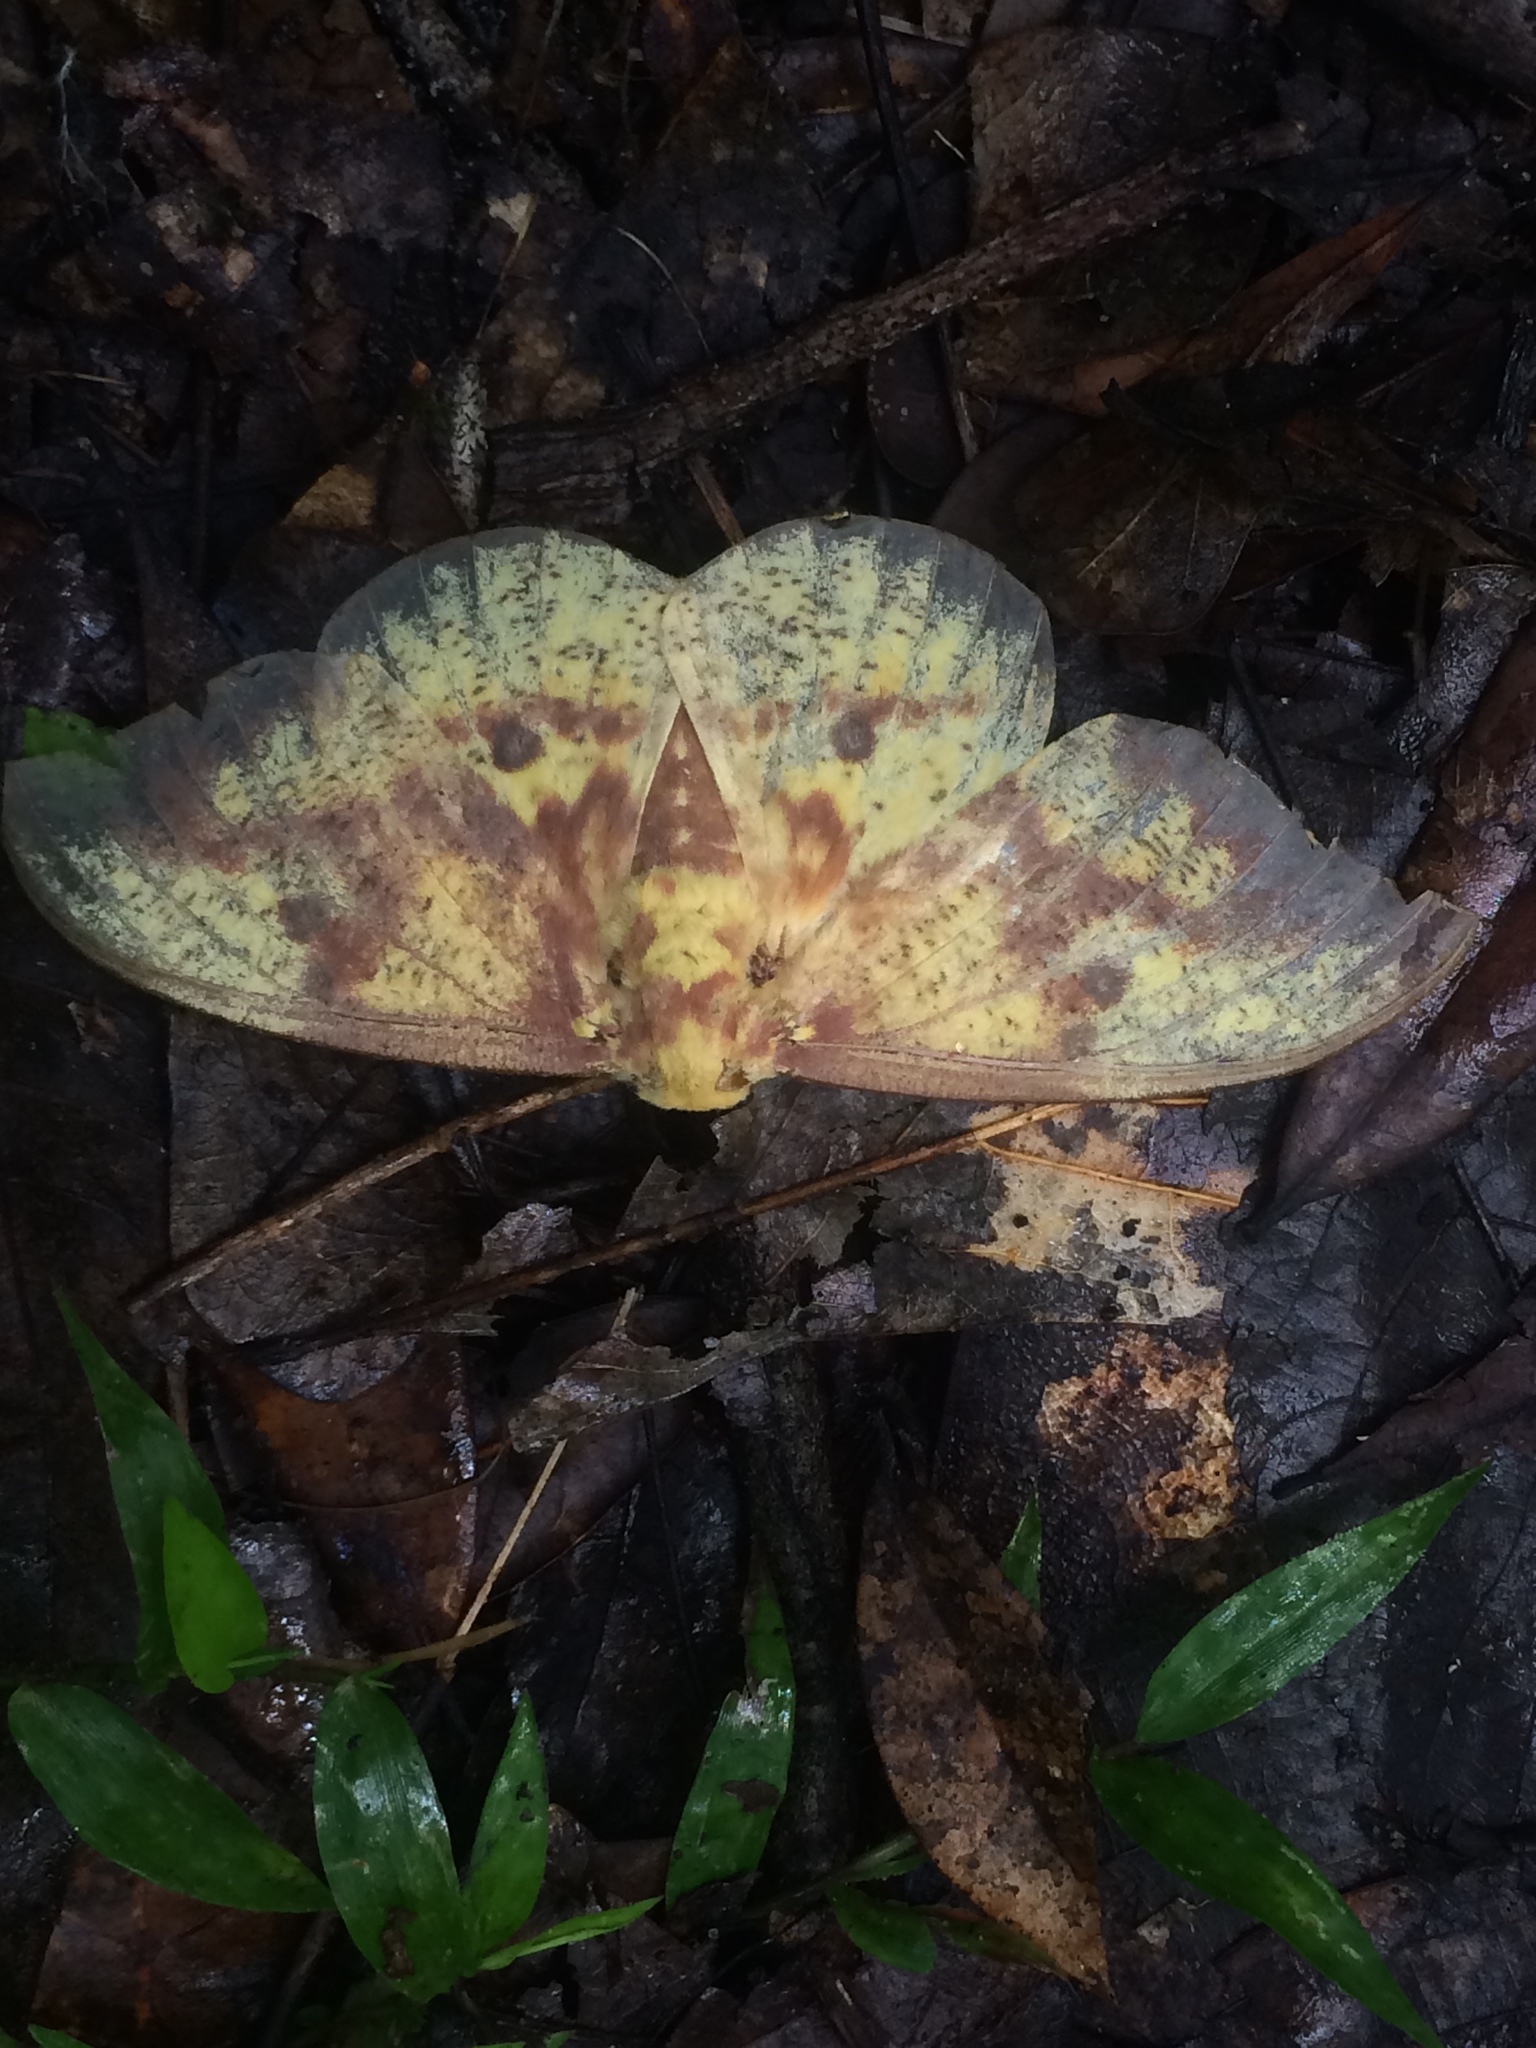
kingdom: Animalia
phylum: Arthropoda
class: Insecta
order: Lepidoptera
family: Saturniidae
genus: Eacles
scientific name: Eacles imperialis
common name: Imperial moth
